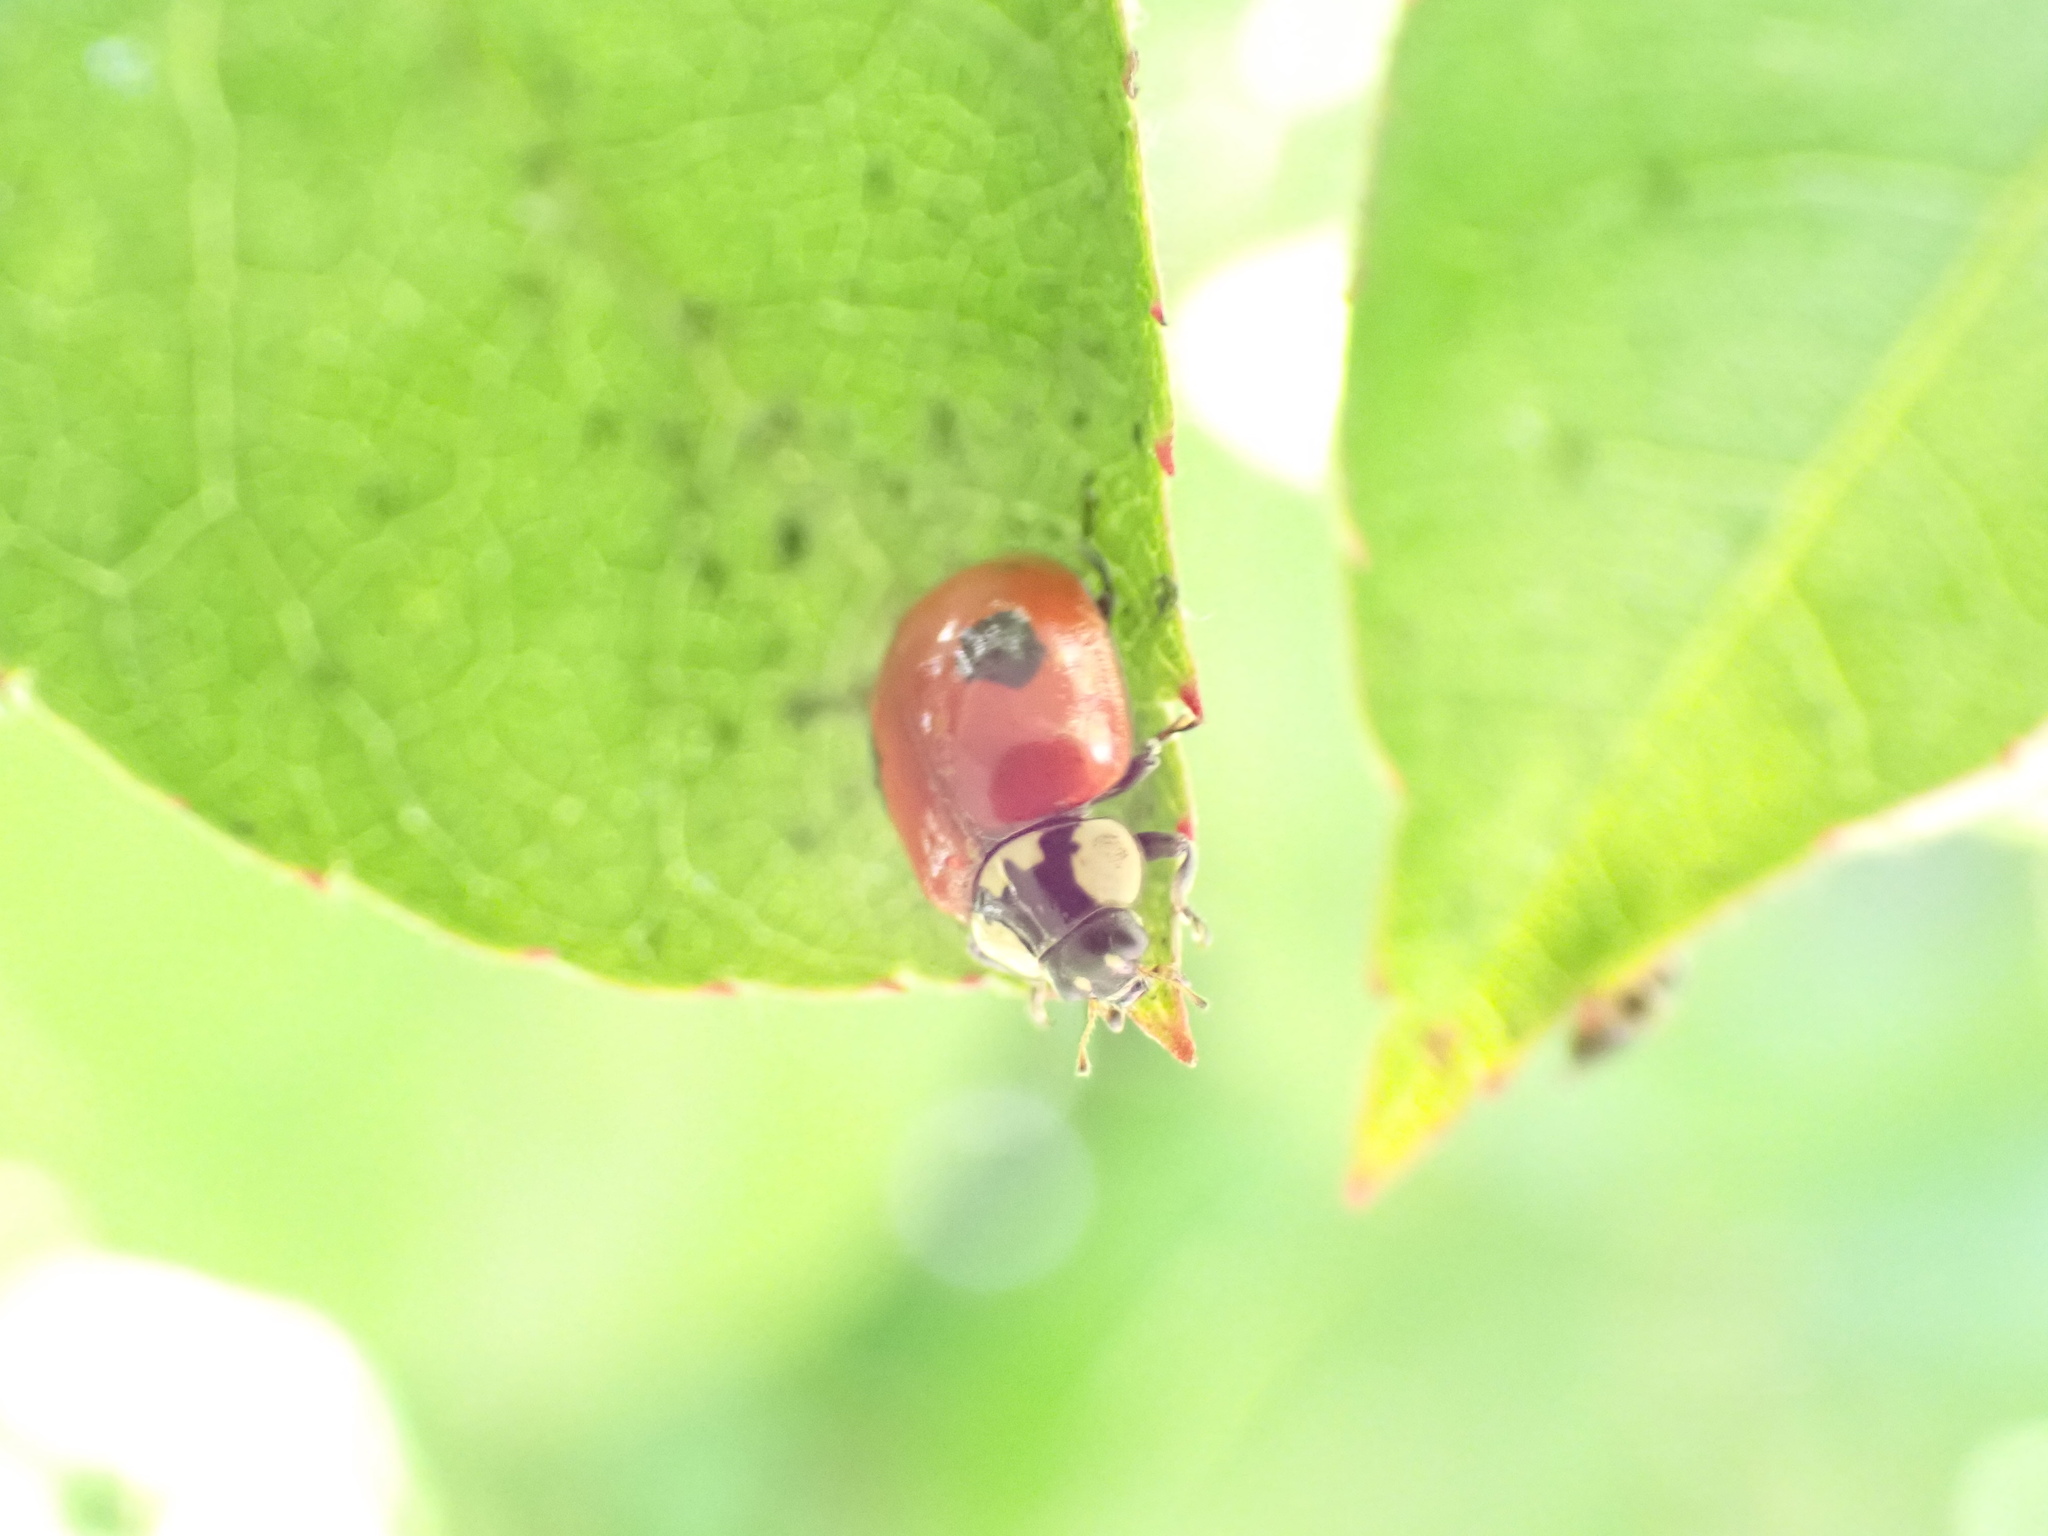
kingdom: Animalia
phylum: Arthropoda
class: Insecta
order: Coleoptera
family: Coccinellidae
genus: Adalia
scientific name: Adalia bipunctata
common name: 2-spot ladybird
